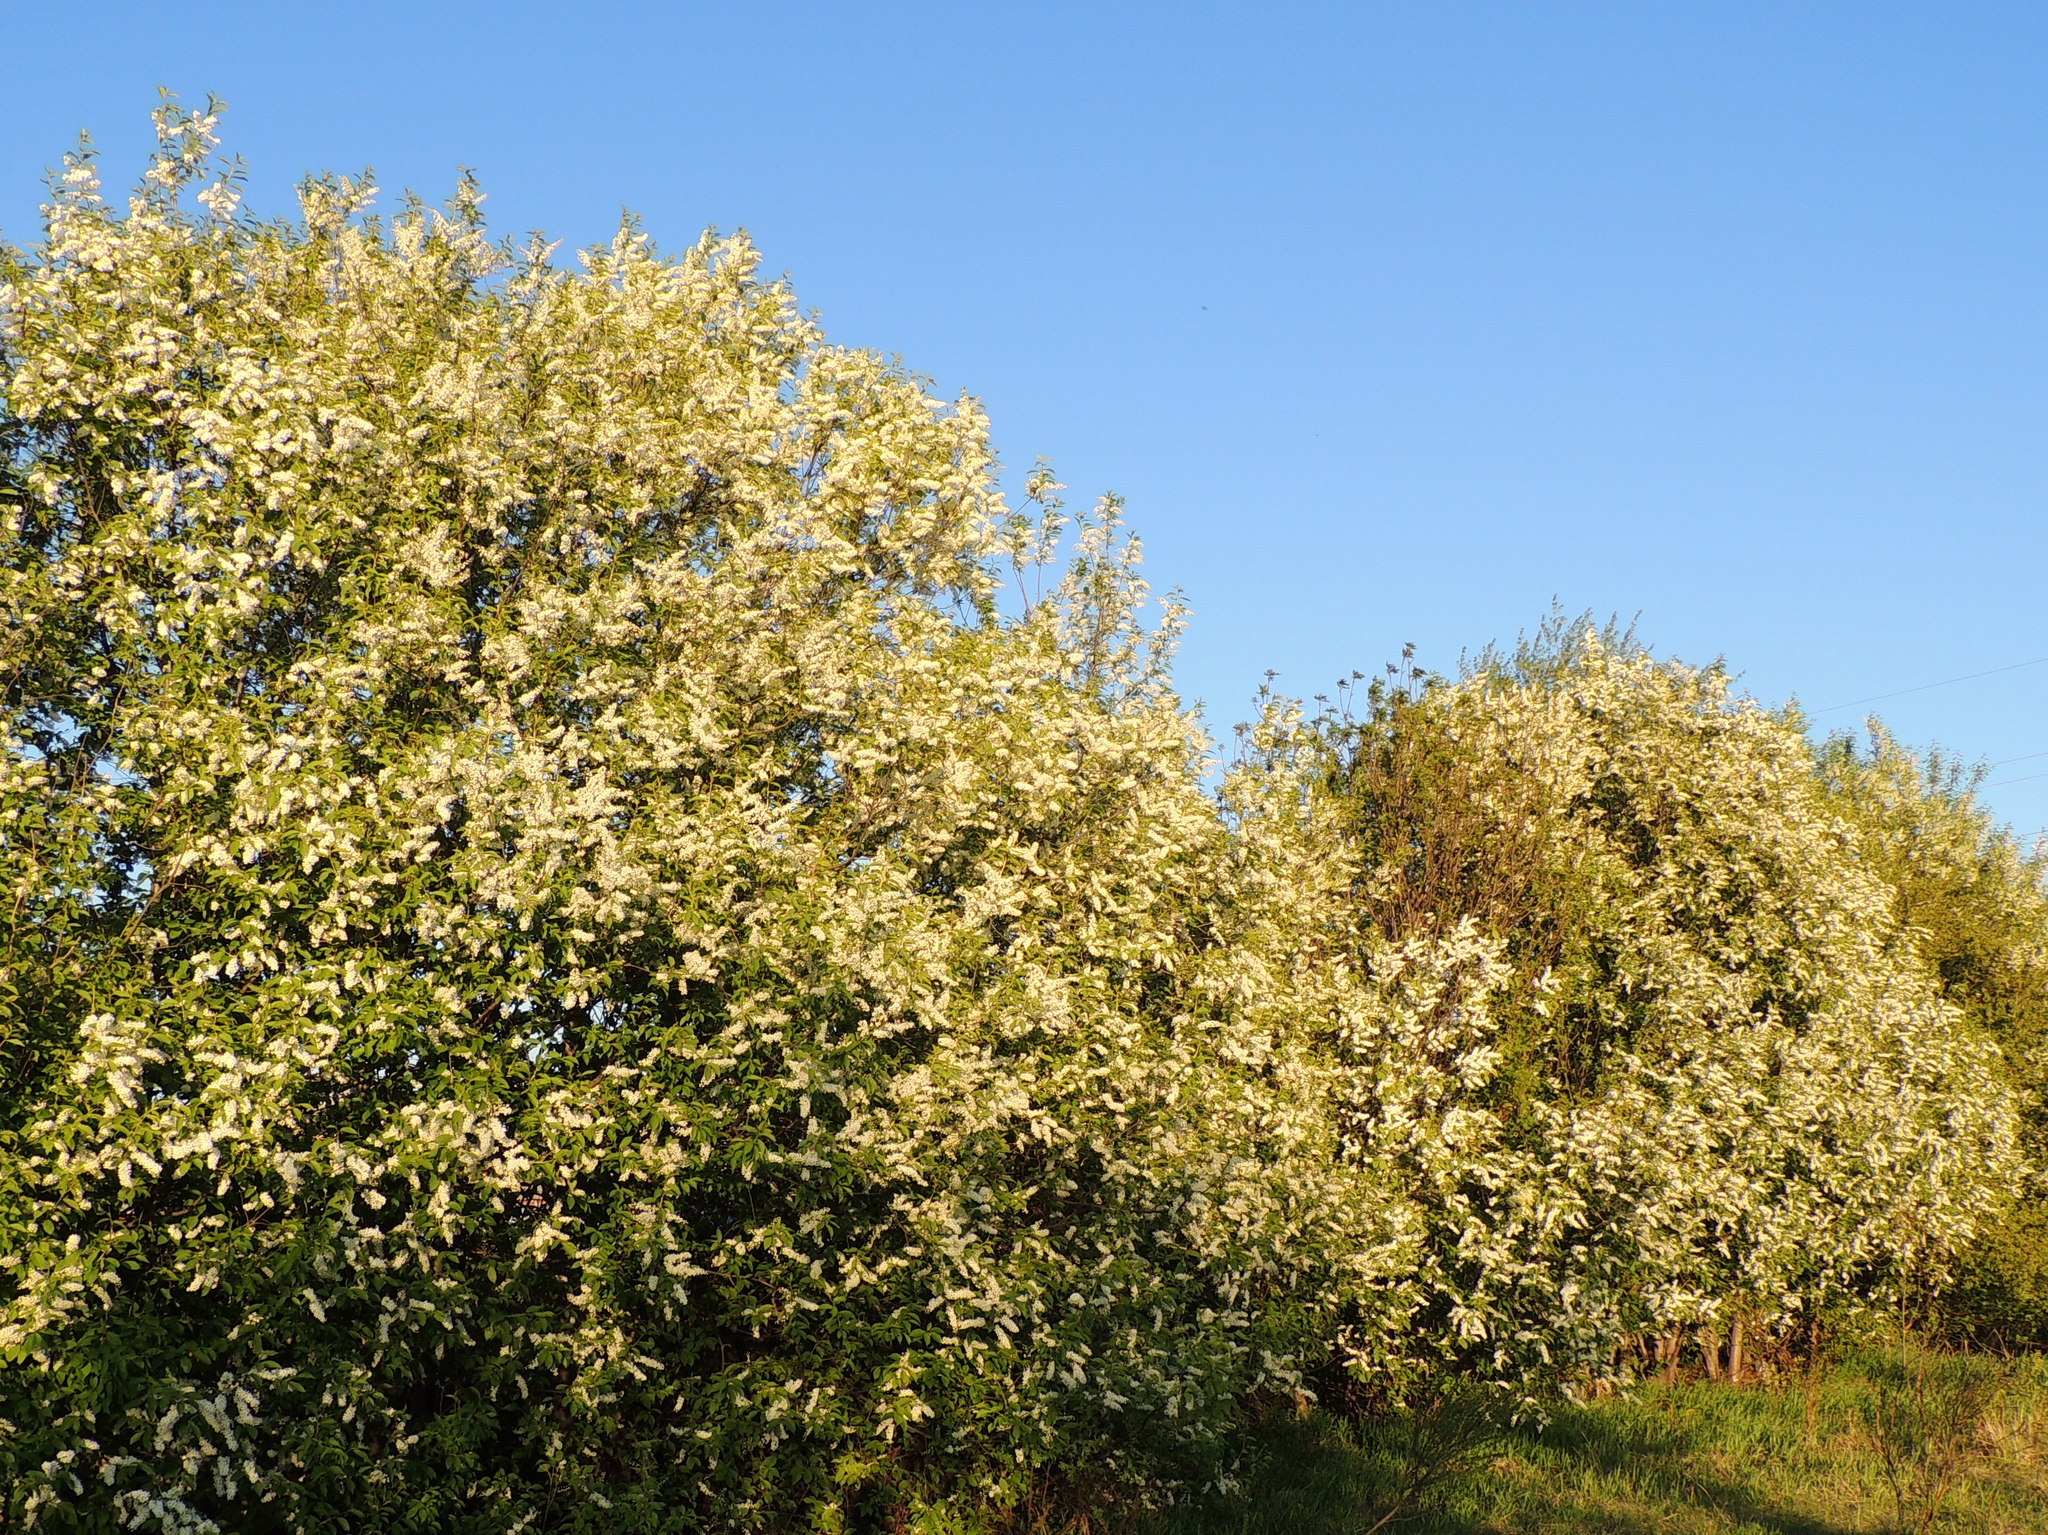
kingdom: Plantae
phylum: Tracheophyta
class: Magnoliopsida
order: Rosales
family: Rosaceae
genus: Prunus
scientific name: Prunus padus
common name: Bird cherry
